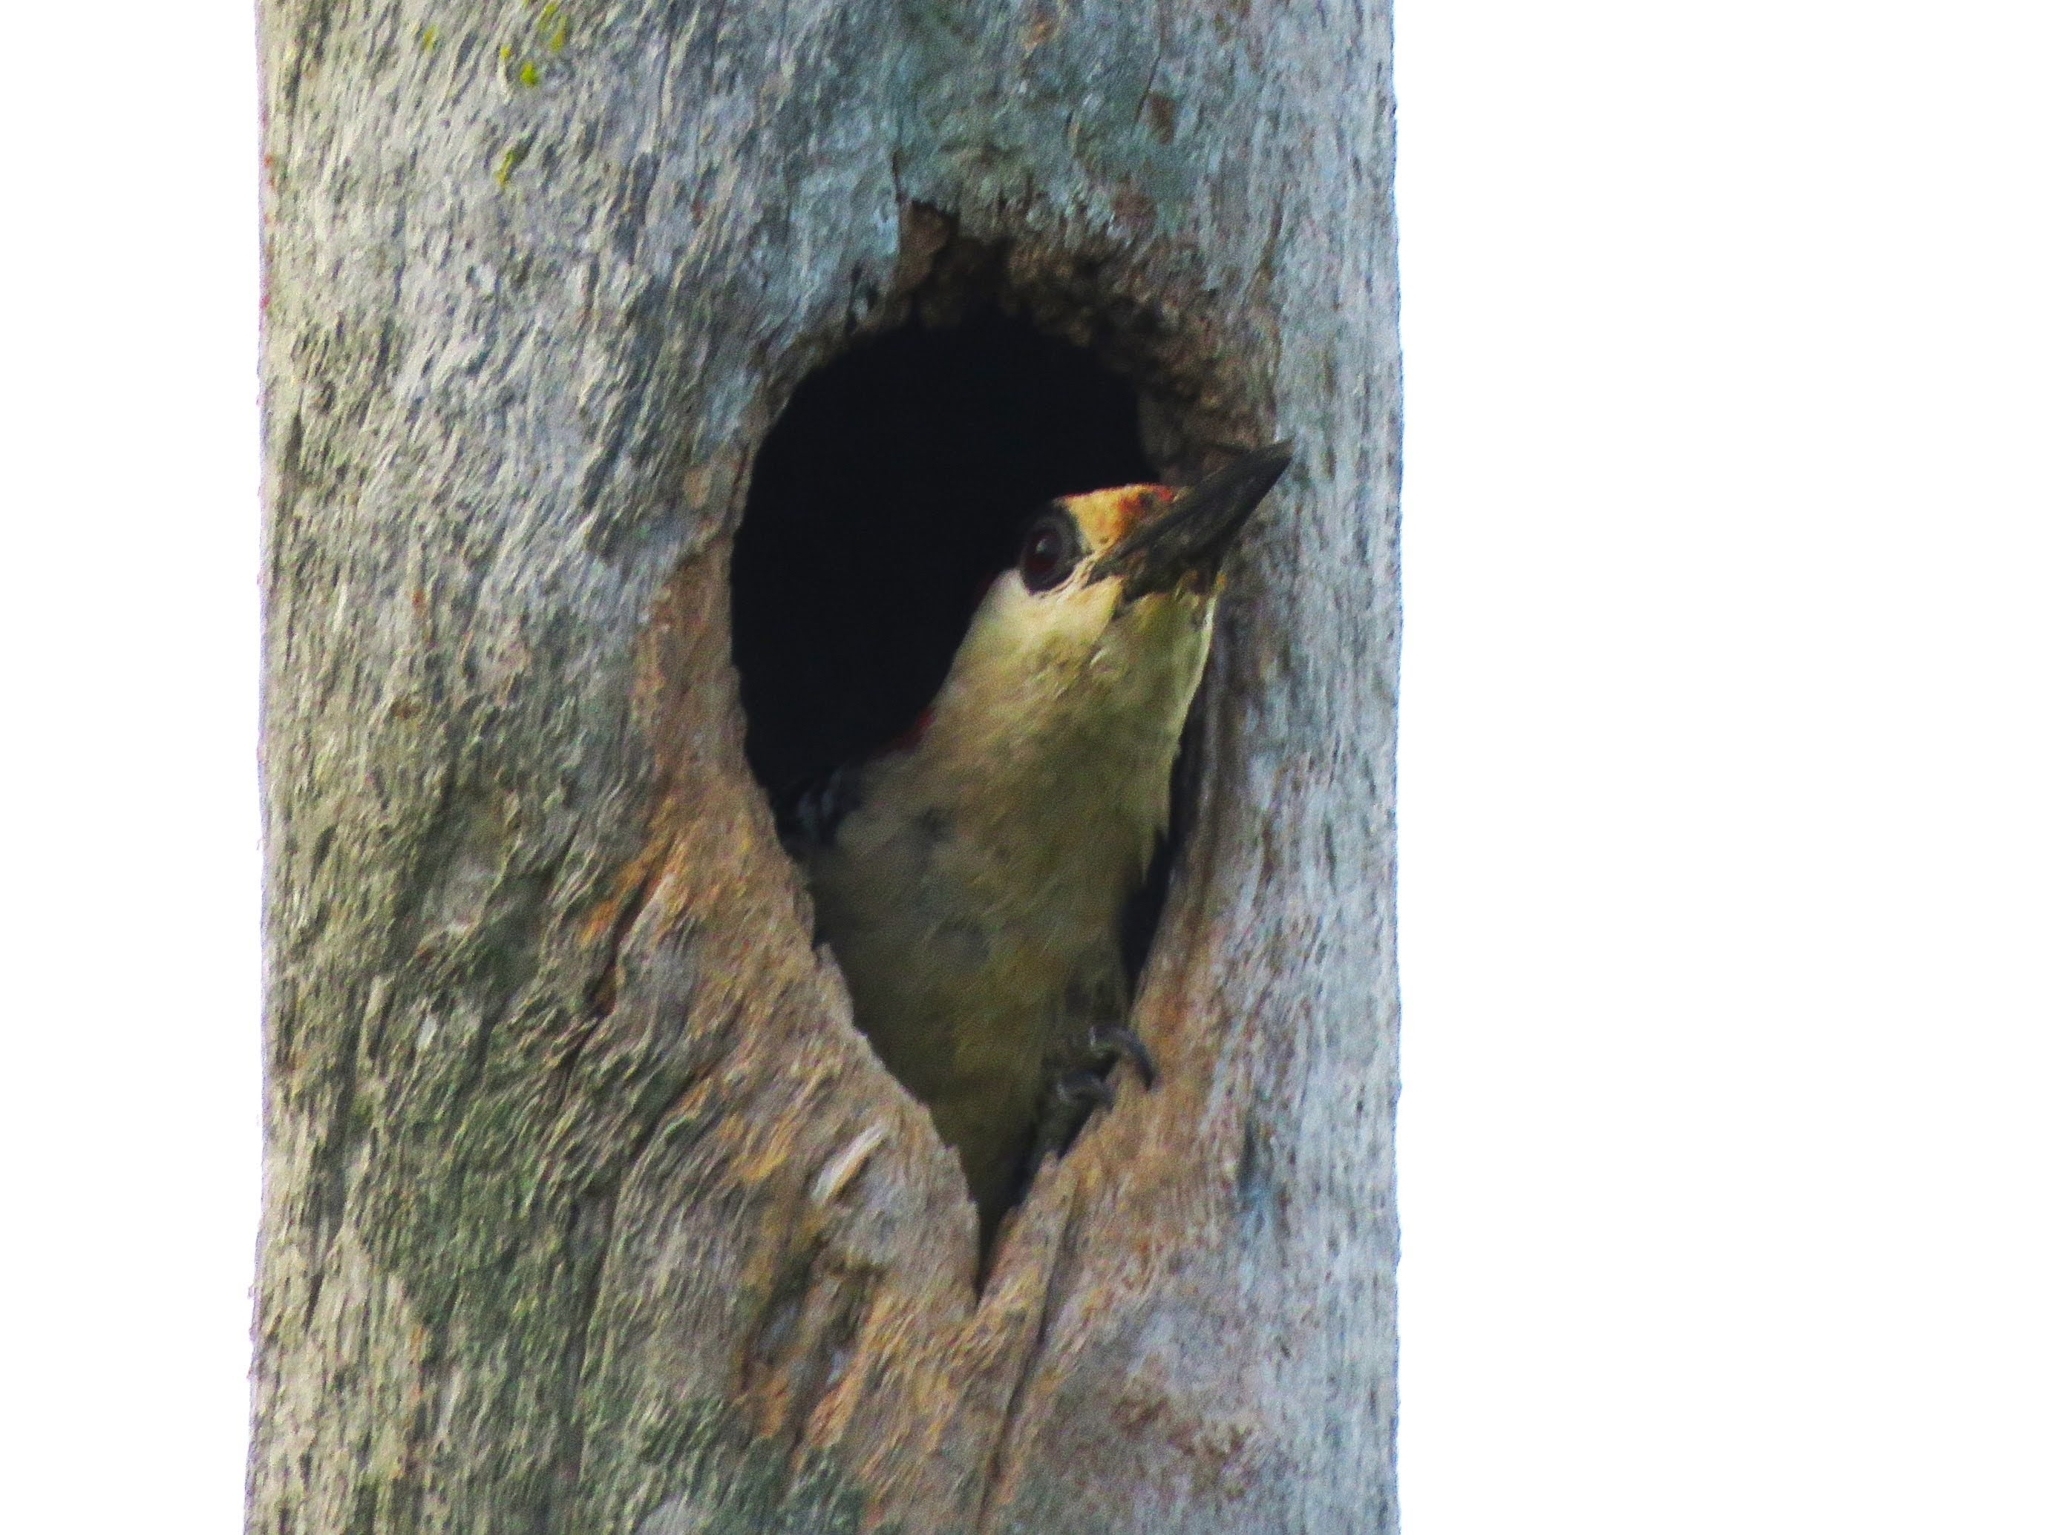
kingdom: Animalia
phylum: Chordata
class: Aves
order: Piciformes
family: Picidae
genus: Melanerpes
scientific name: Melanerpes superciliaris
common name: West indian woodpecker
